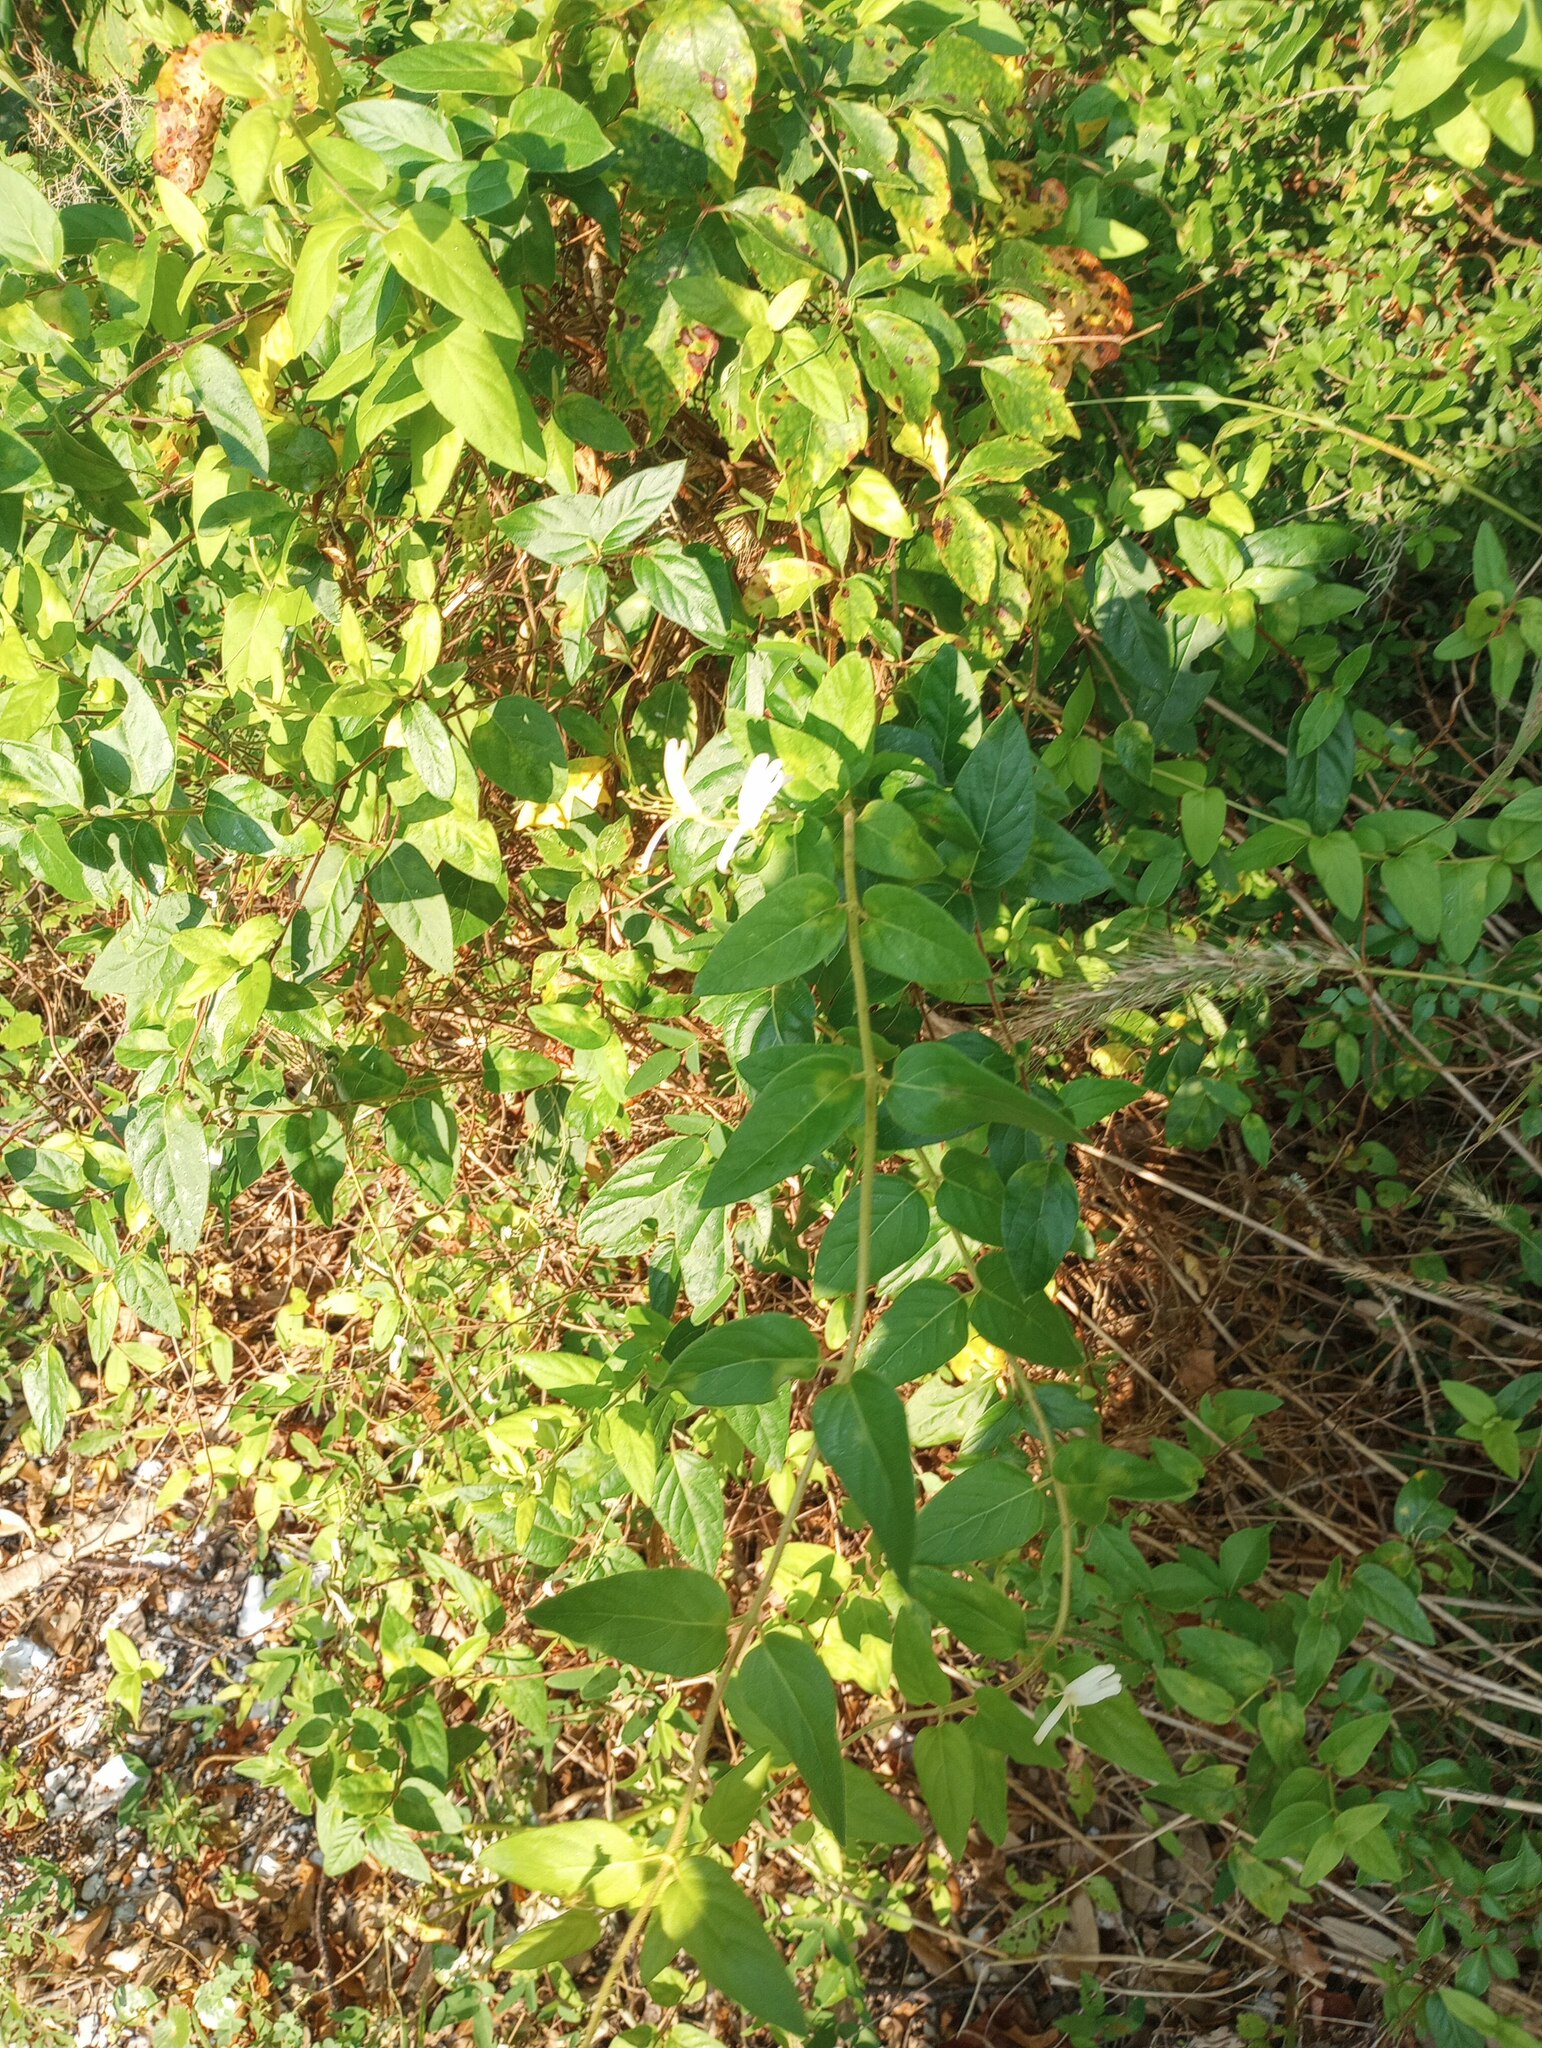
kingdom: Plantae
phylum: Tracheophyta
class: Magnoliopsida
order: Dipsacales
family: Caprifoliaceae
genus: Lonicera
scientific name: Lonicera japonica
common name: Japanese honeysuckle
